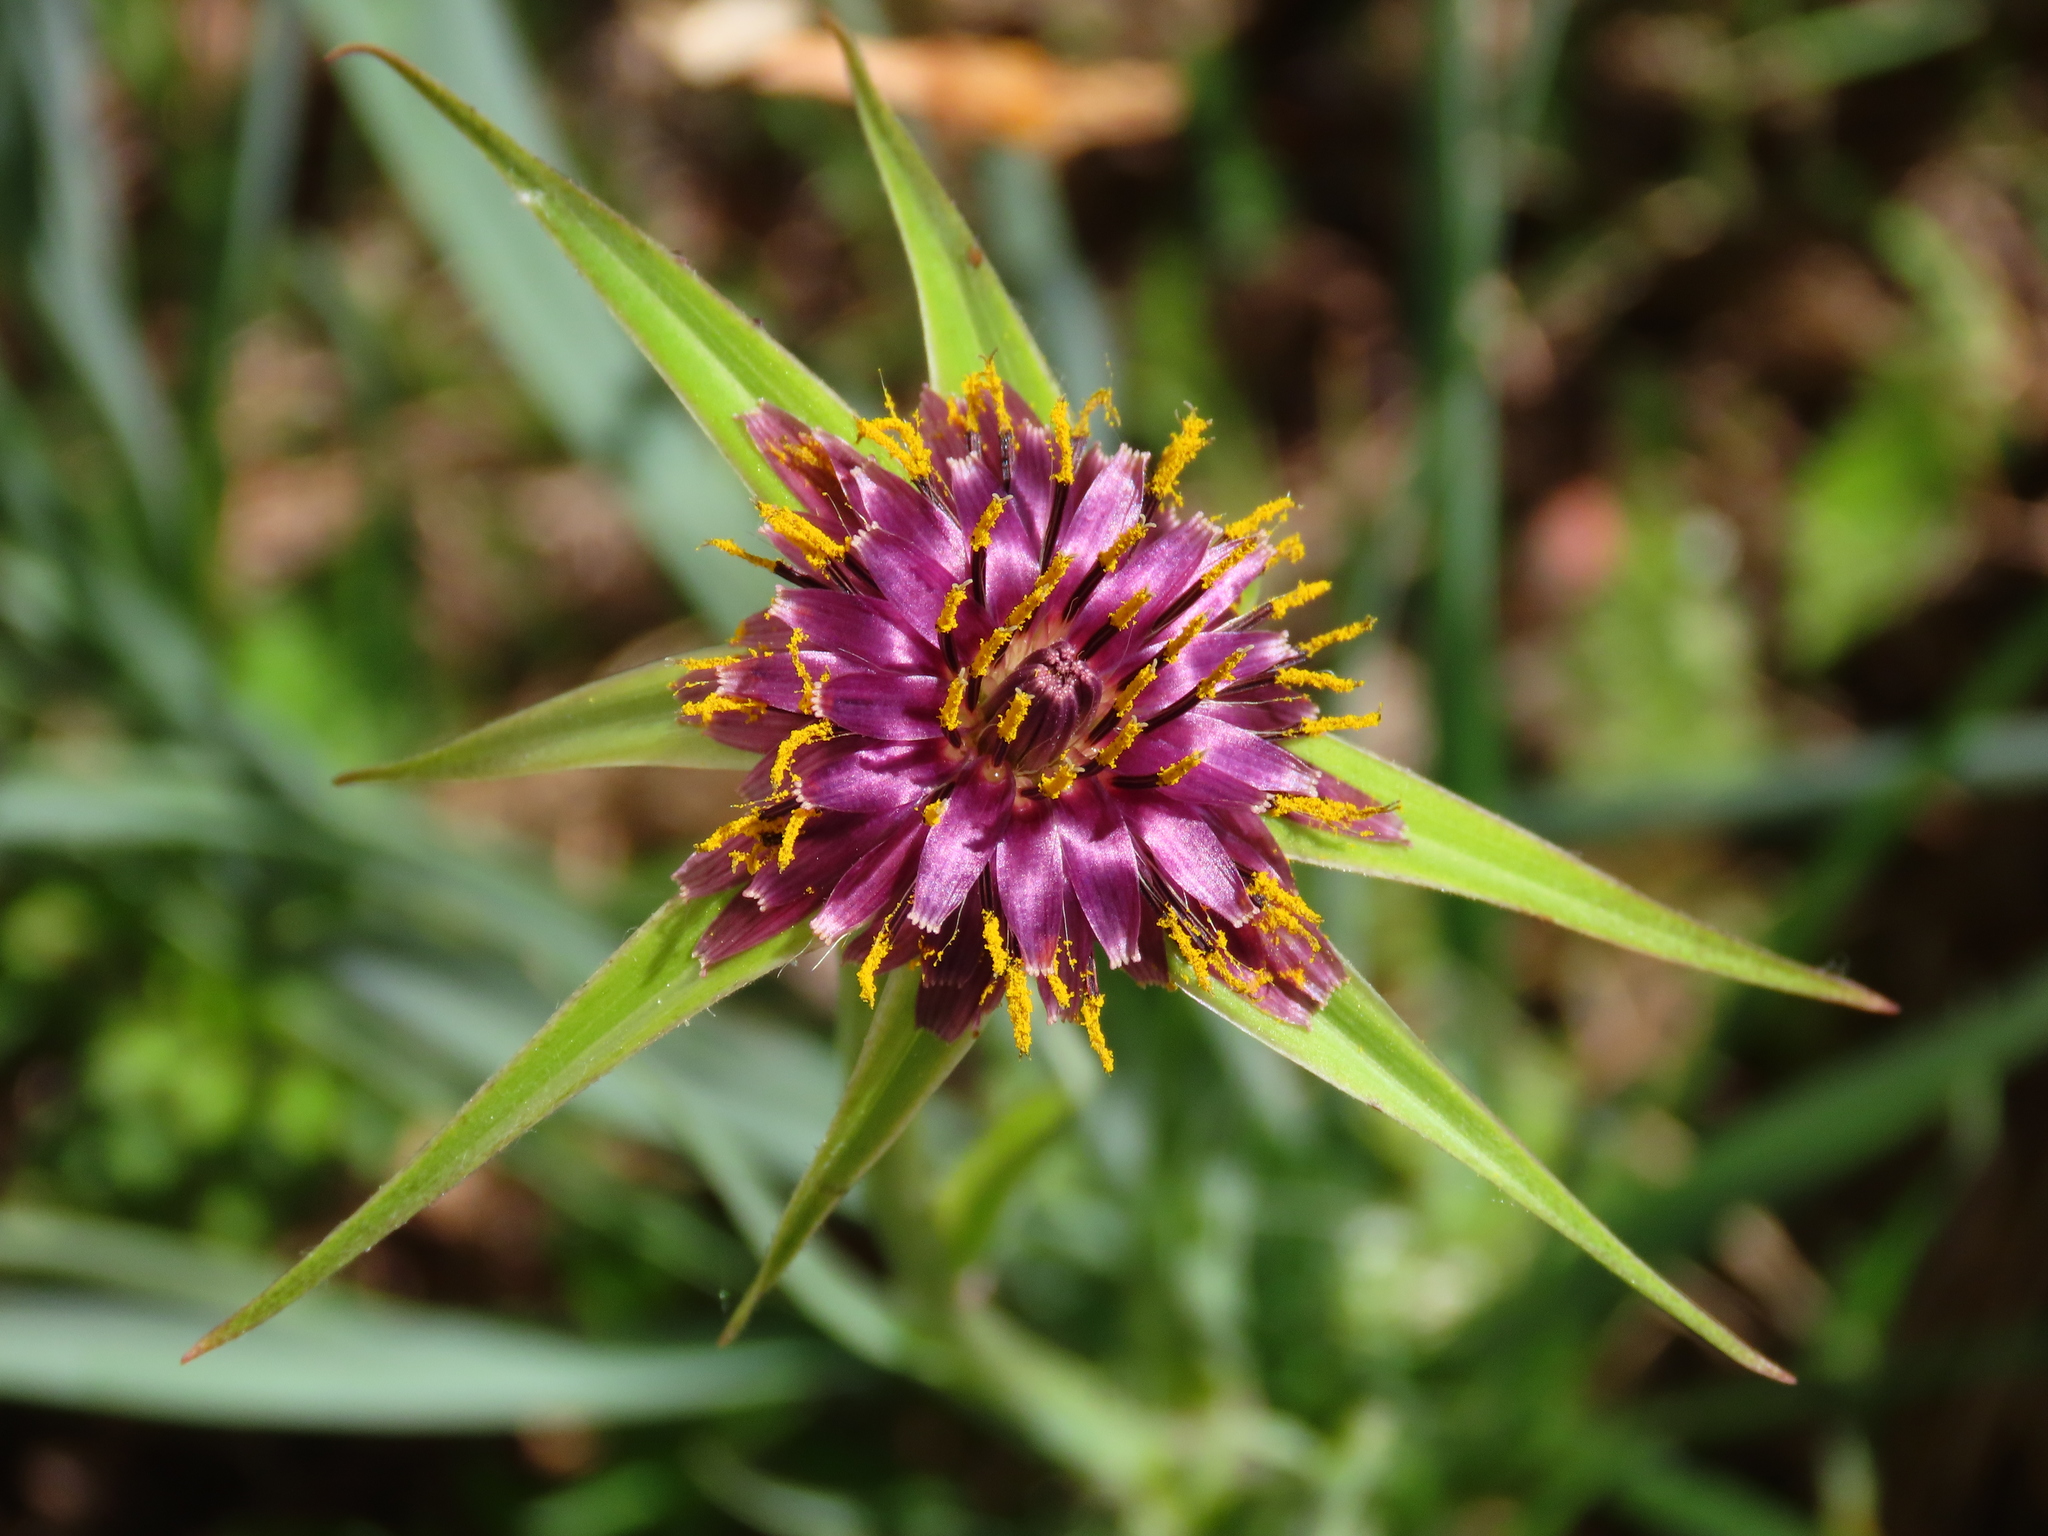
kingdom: Plantae
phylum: Tracheophyta
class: Magnoliopsida
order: Asterales
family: Asteraceae
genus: Tragopogon
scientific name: Tragopogon porrifolius
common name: Salsify
